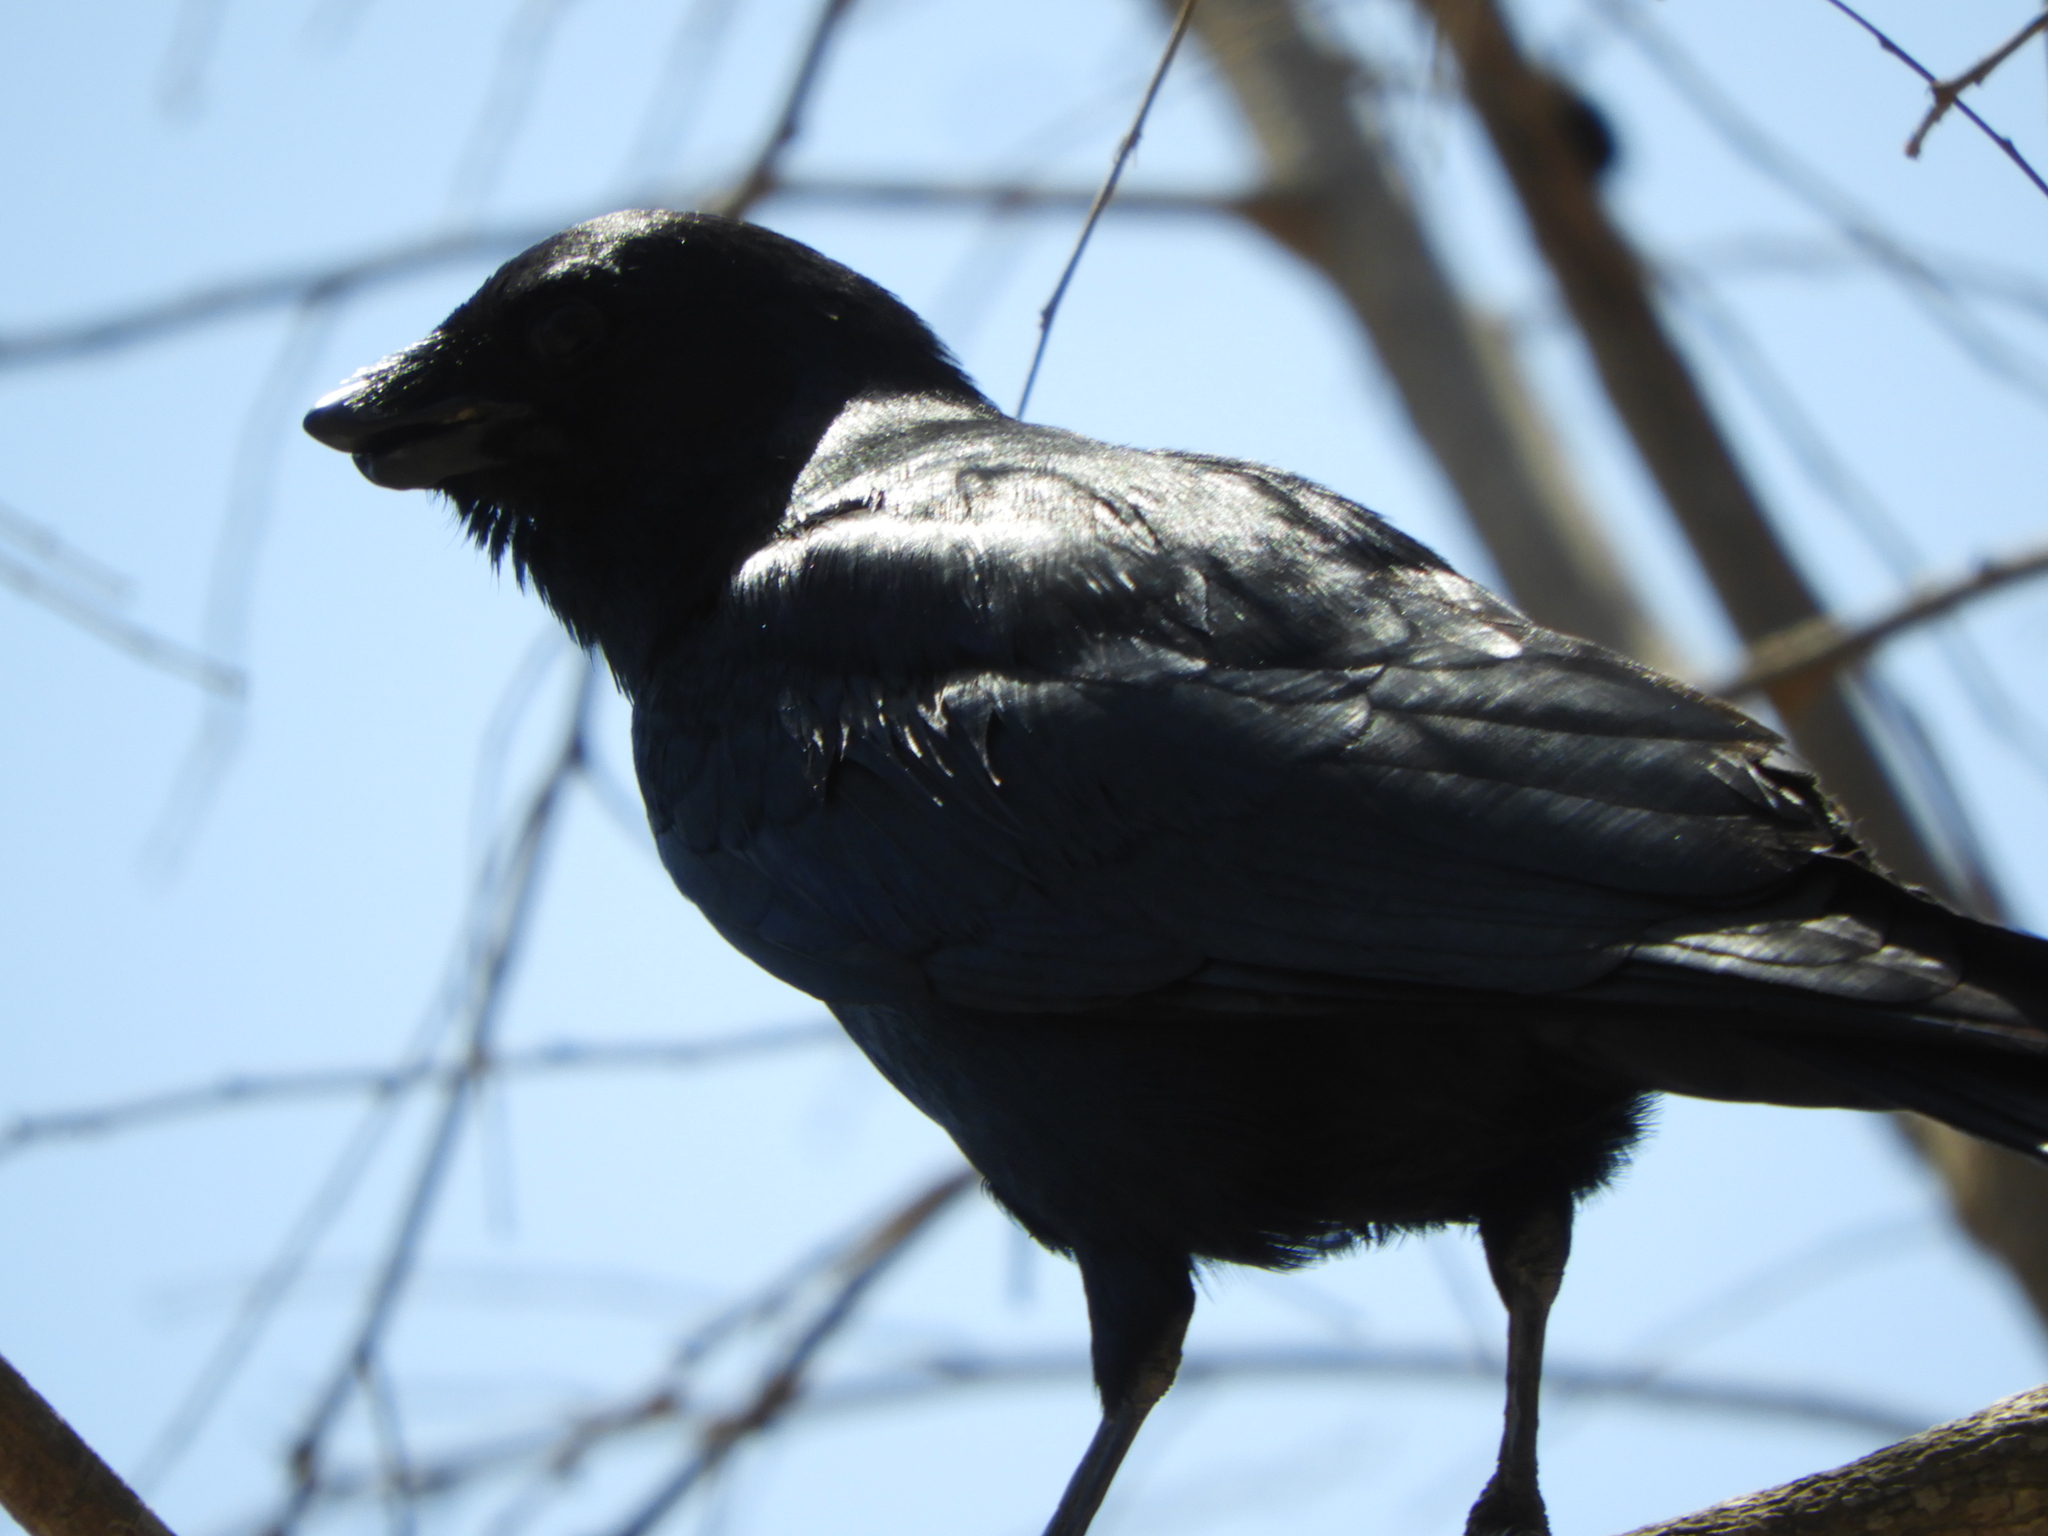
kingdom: Animalia
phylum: Chordata
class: Aves
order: Passeriformes
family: Corvidae
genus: Corvus
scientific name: Corvus sinaloae
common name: Sinaloa crow
